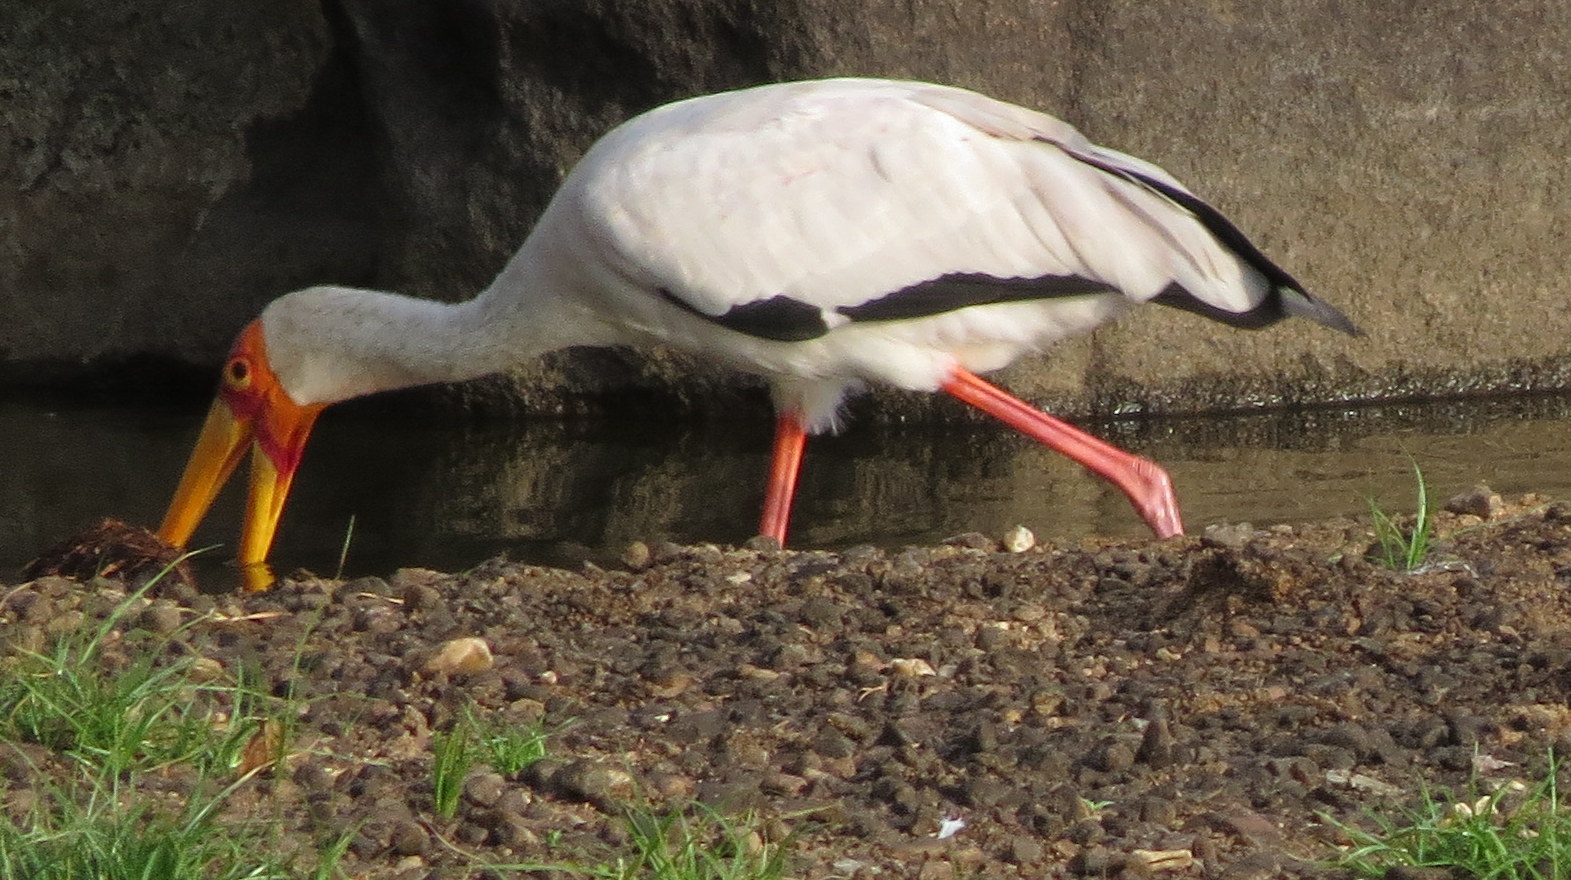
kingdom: Animalia
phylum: Chordata
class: Aves
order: Ciconiiformes
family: Ciconiidae
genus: Mycteria
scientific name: Mycteria ibis
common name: Yellow-billed stork
